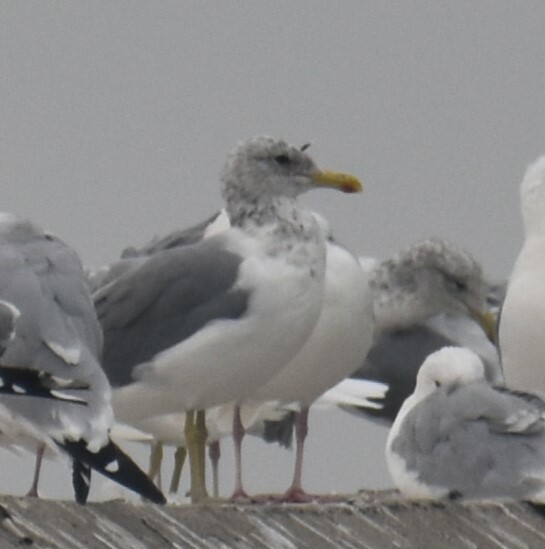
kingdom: Animalia
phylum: Chordata
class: Aves
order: Charadriiformes
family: Laridae
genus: Larus
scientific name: Larus californicus
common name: California gull
